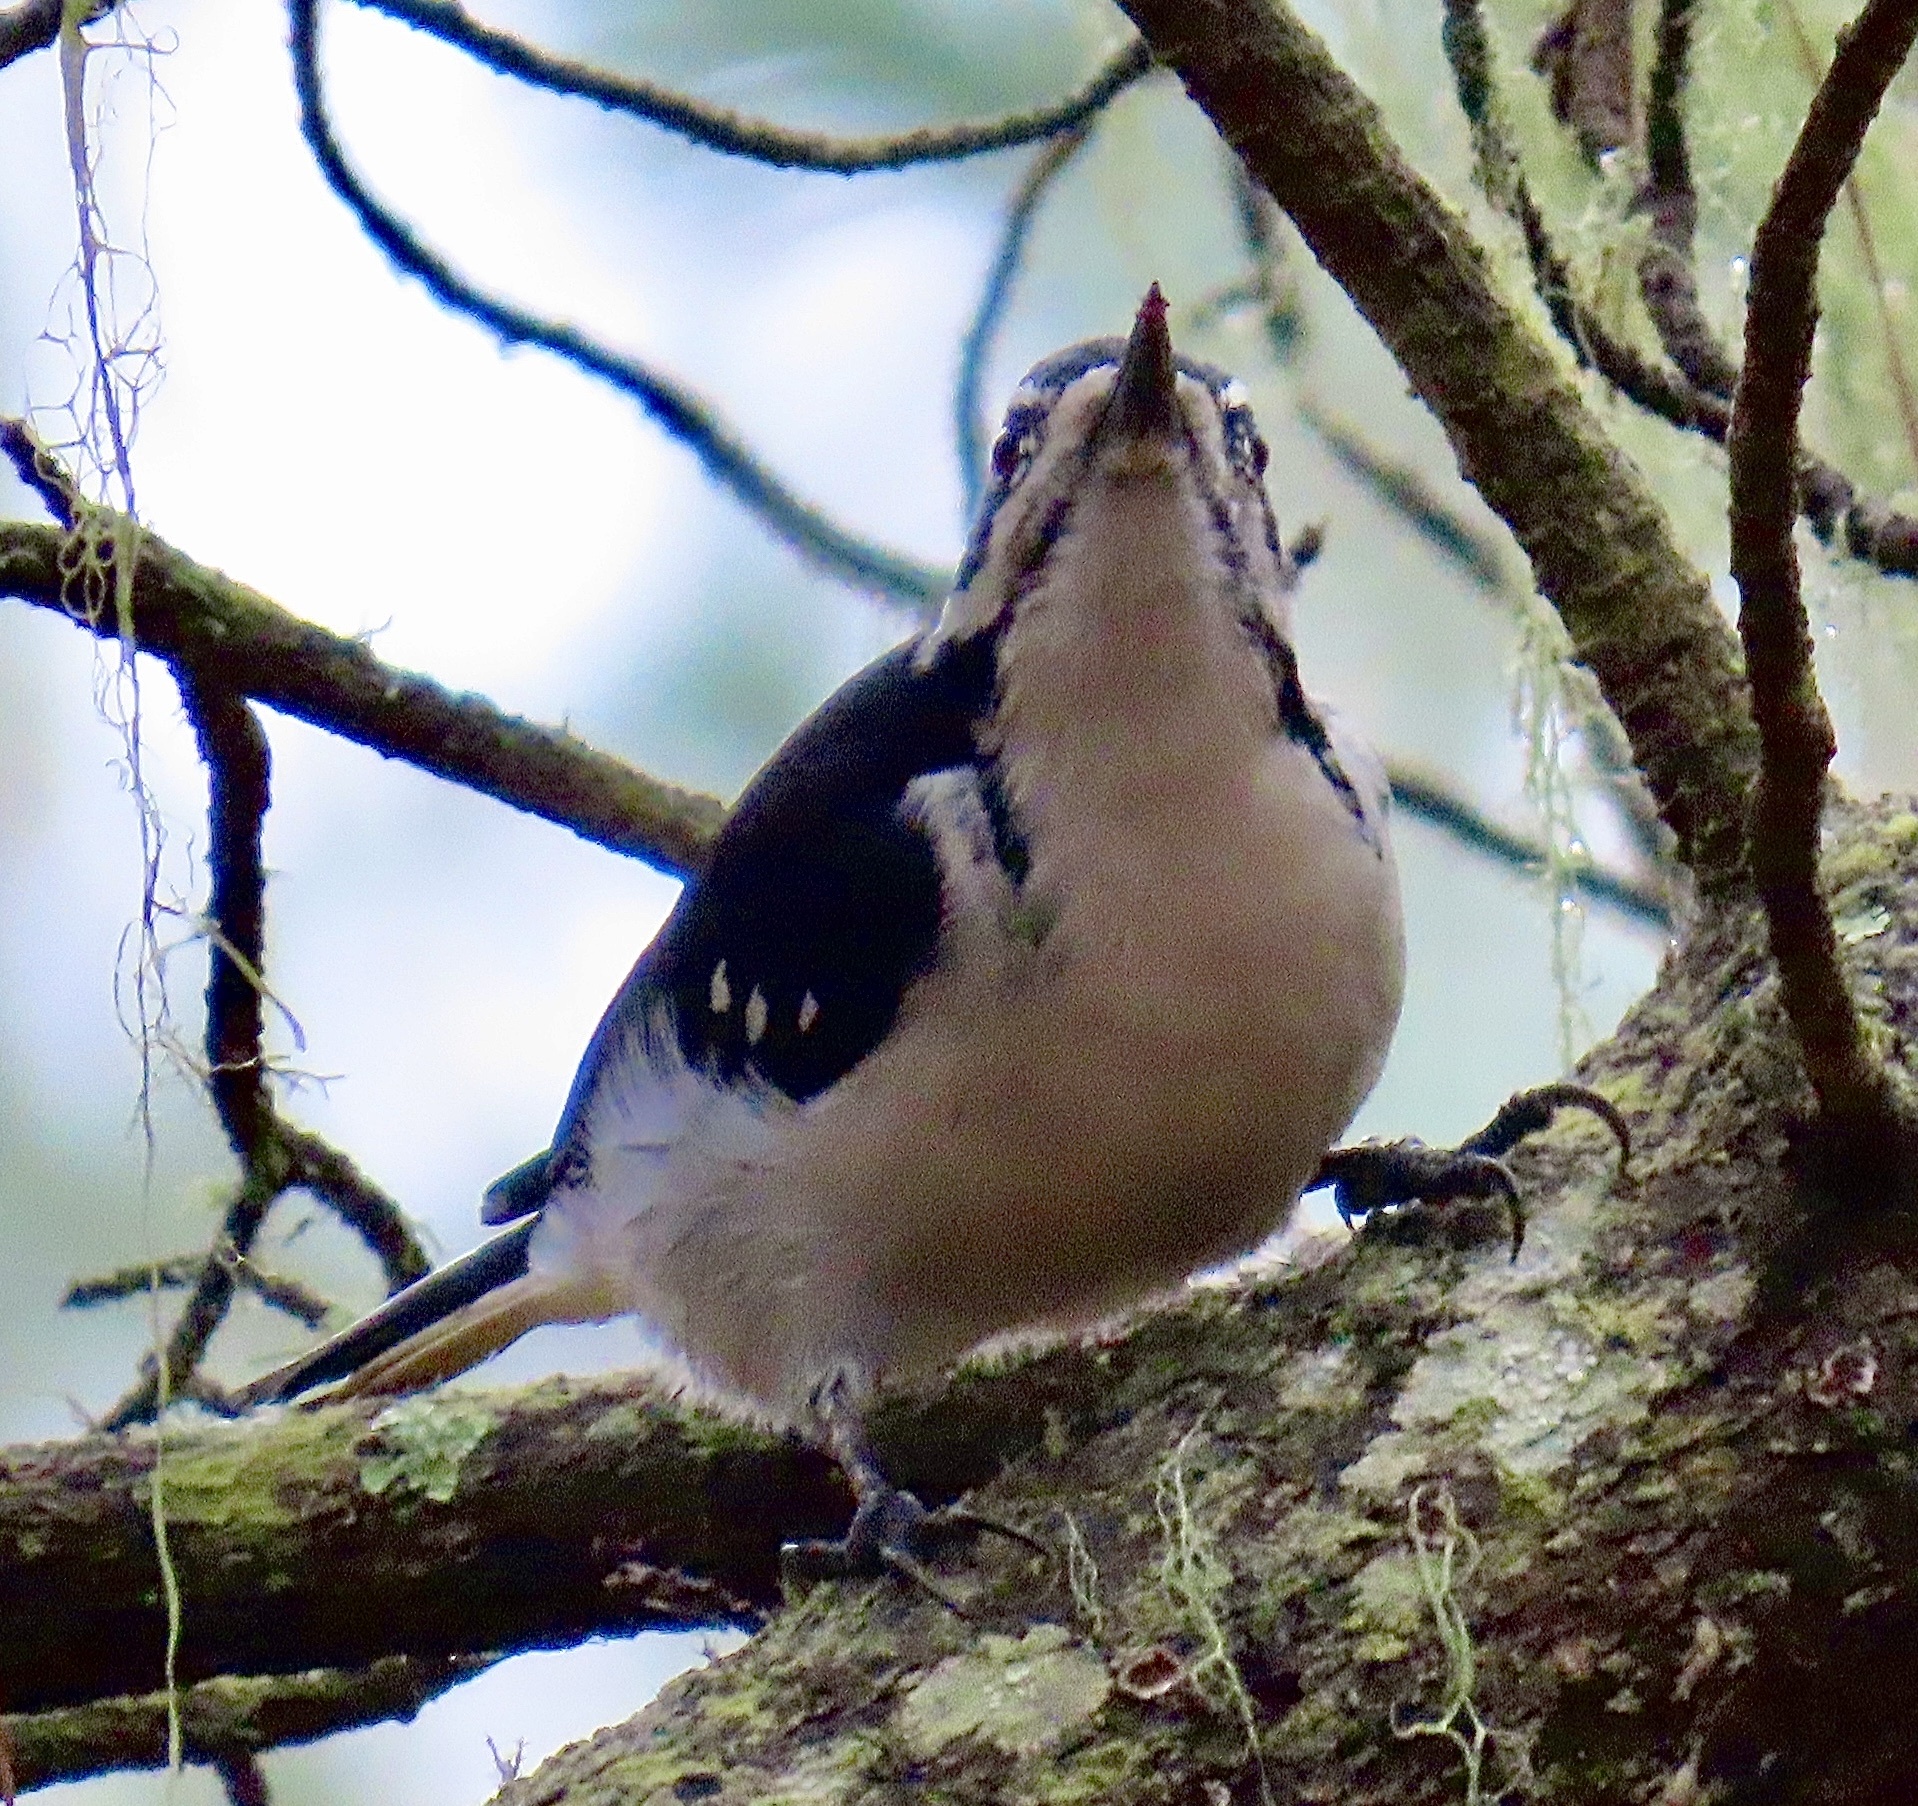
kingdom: Animalia
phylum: Chordata
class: Aves
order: Piciformes
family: Picidae
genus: Leuconotopicus
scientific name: Leuconotopicus villosus
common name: Hairy woodpecker
